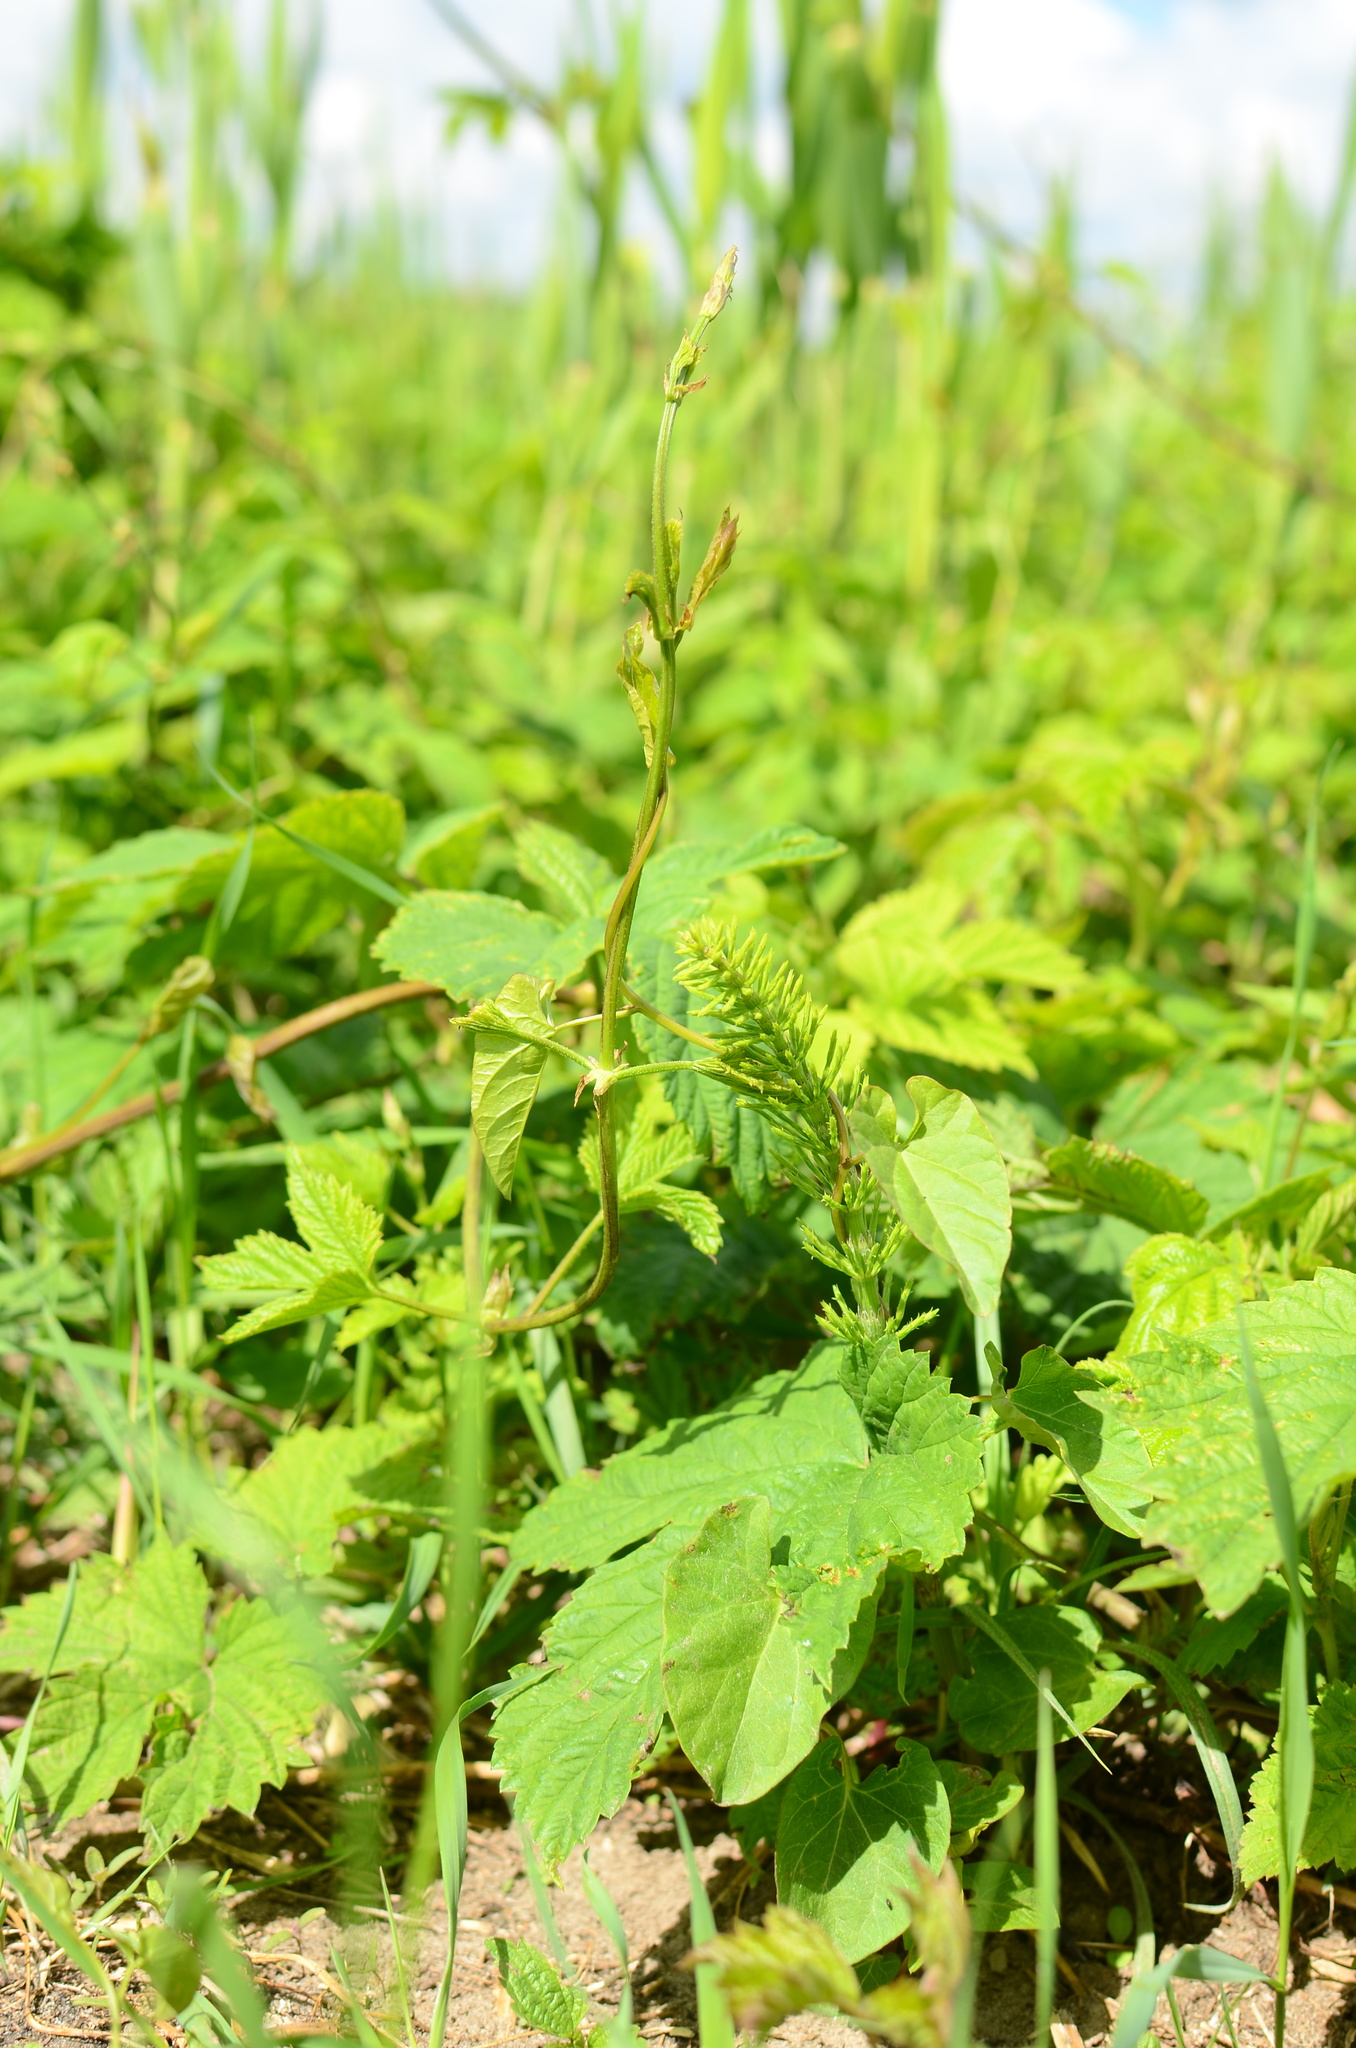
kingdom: Plantae
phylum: Tracheophyta
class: Polypodiopsida
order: Equisetales
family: Equisetaceae
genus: Equisetum
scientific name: Equisetum arvense
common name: Field horsetail
